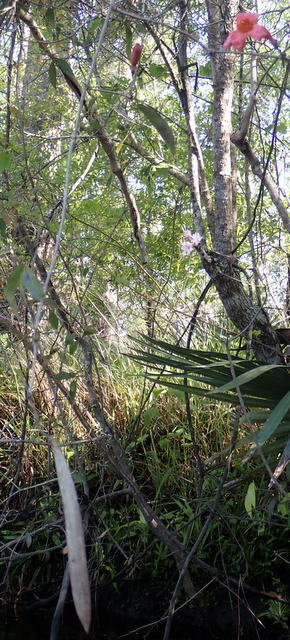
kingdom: Plantae
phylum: Tracheophyta
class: Magnoliopsida
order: Lamiales
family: Bignoniaceae
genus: Bignonia
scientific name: Bignonia capreolata
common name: Crossvine
